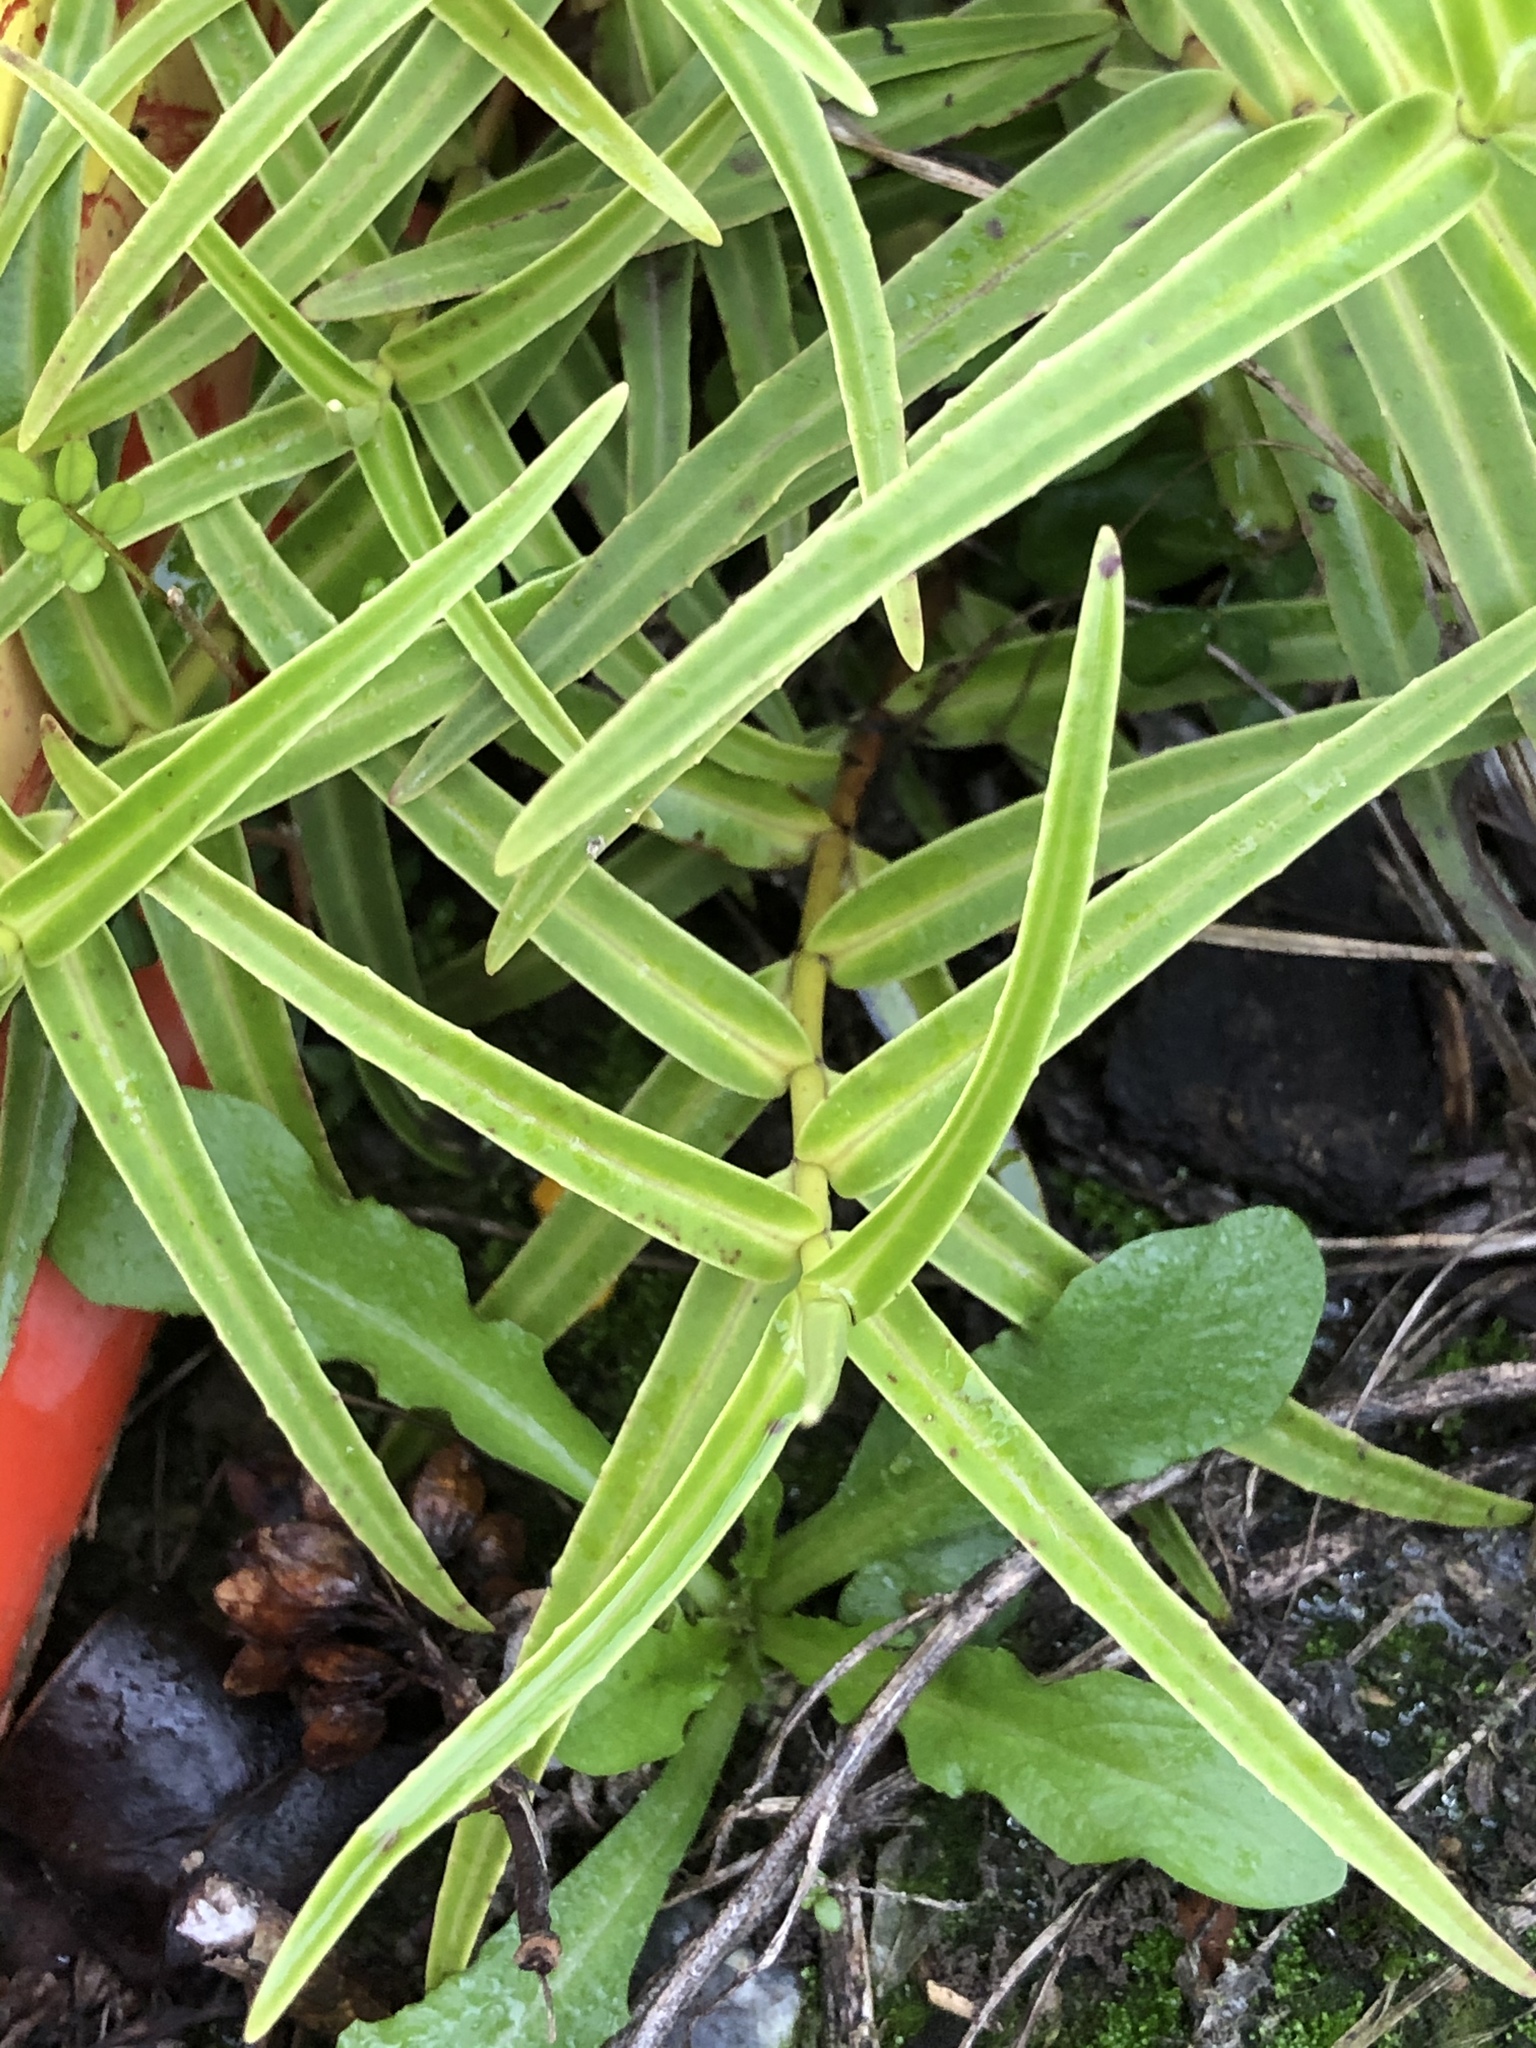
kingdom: Plantae
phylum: Tracheophyta
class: Magnoliopsida
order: Lamiales
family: Plantaginaceae
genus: Veronica
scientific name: Veronica tairawhiti
